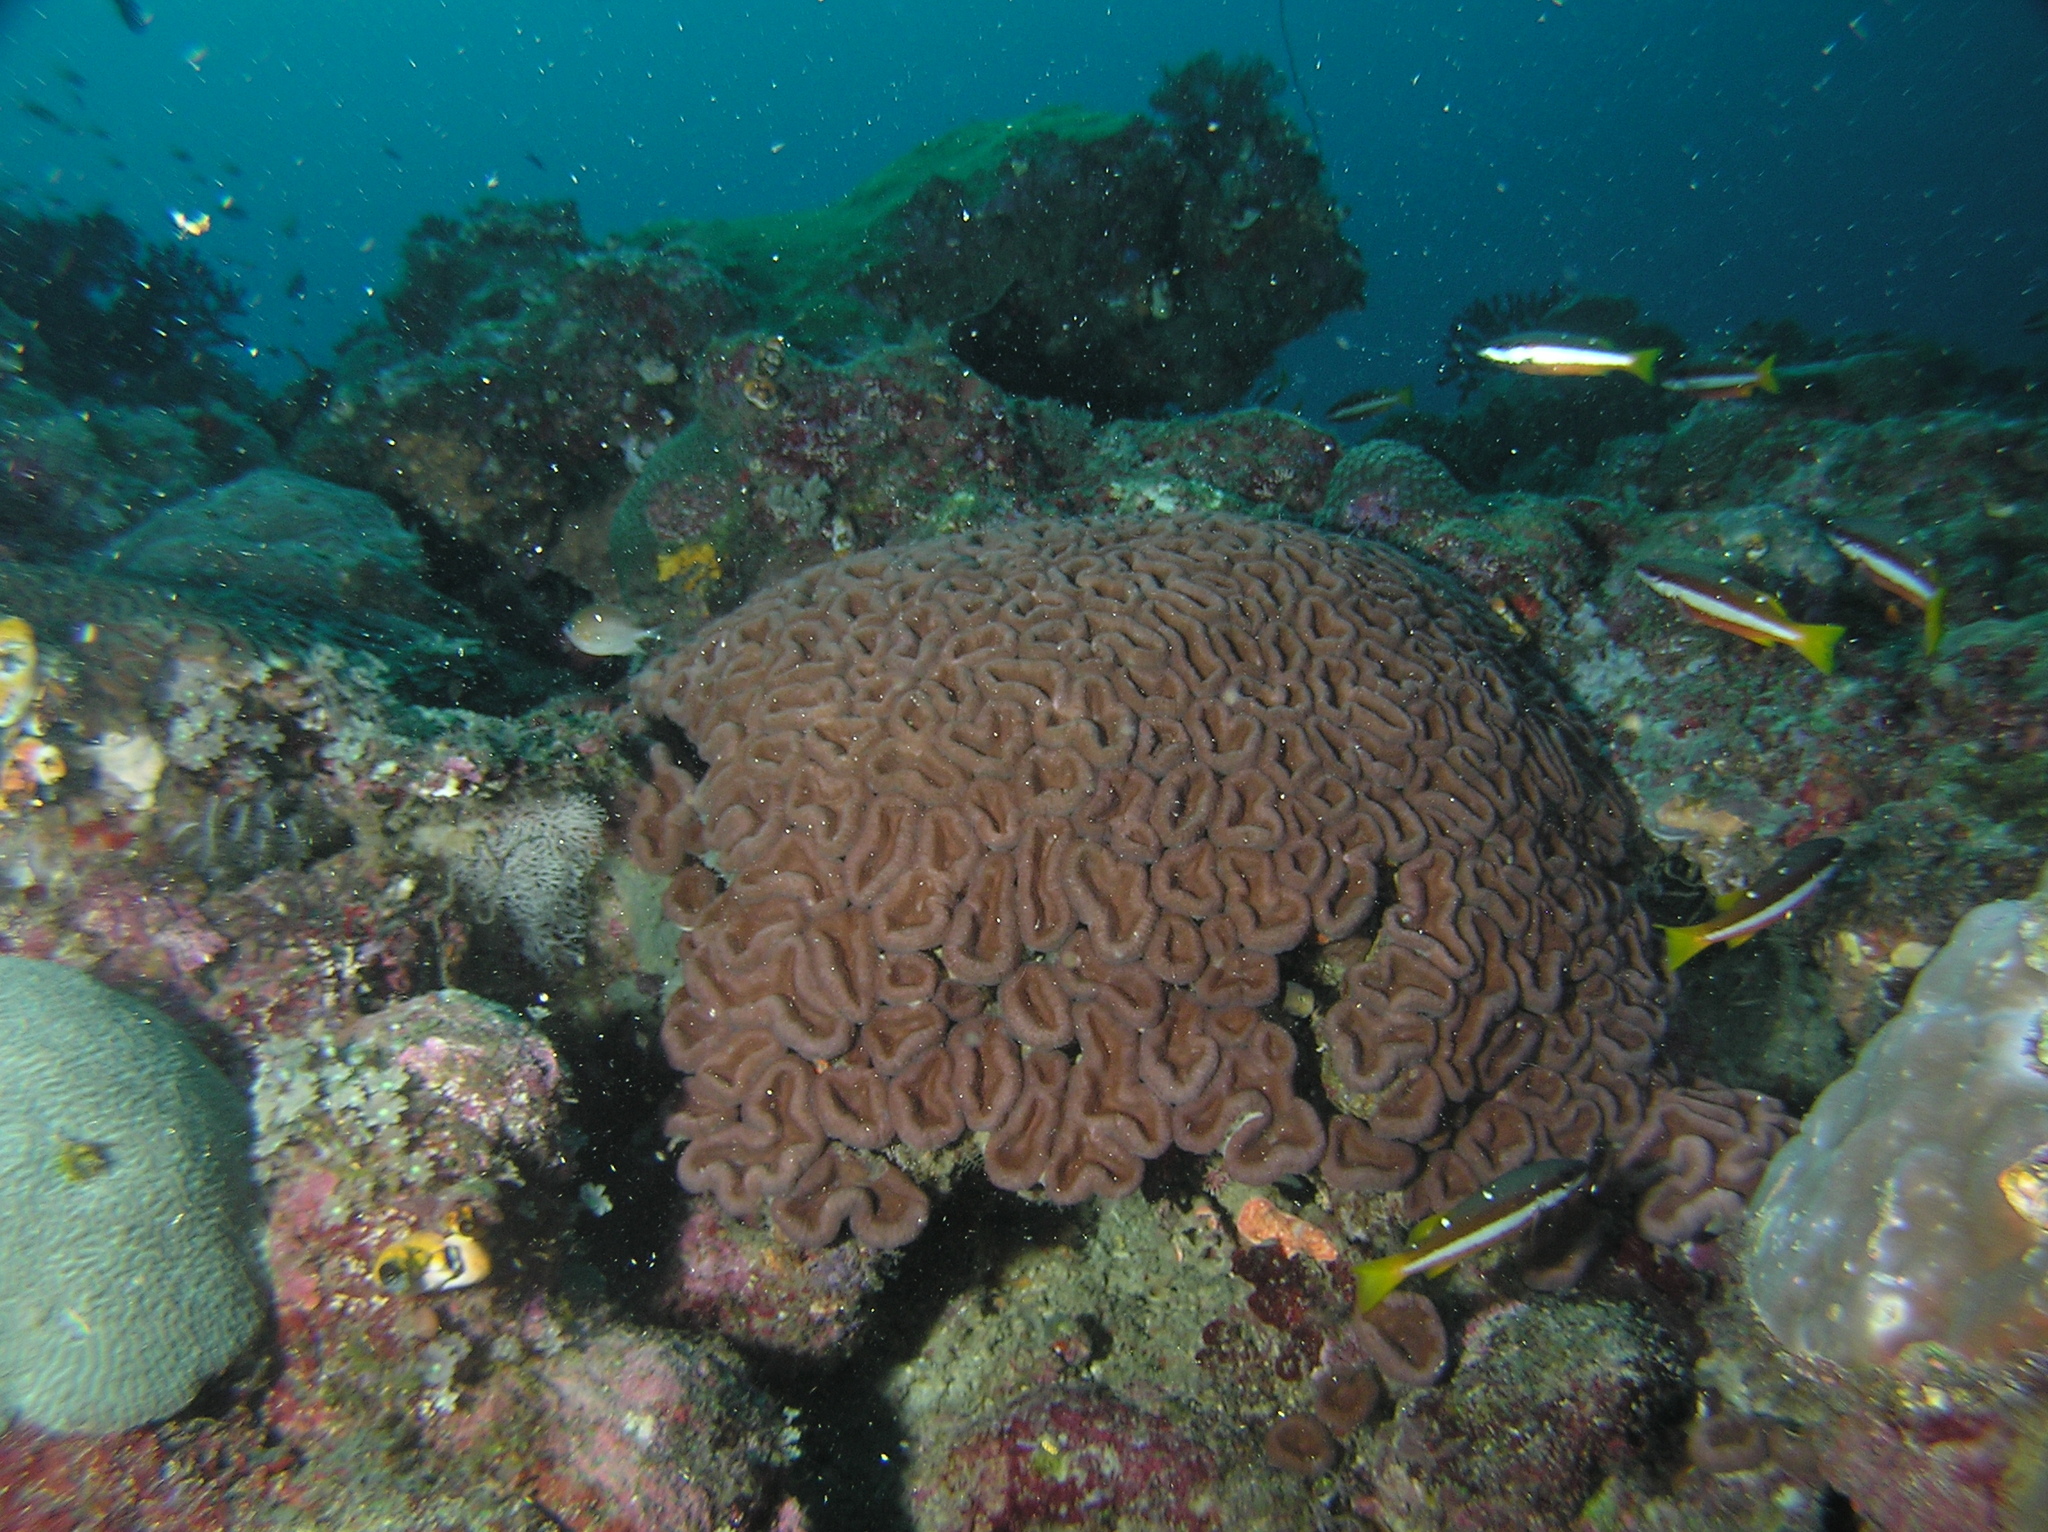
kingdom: Animalia
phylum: Chordata
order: Perciformes
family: Lutjanidae
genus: Lutjanus
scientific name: Lutjanus biguttatus
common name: Two-spot snapper
